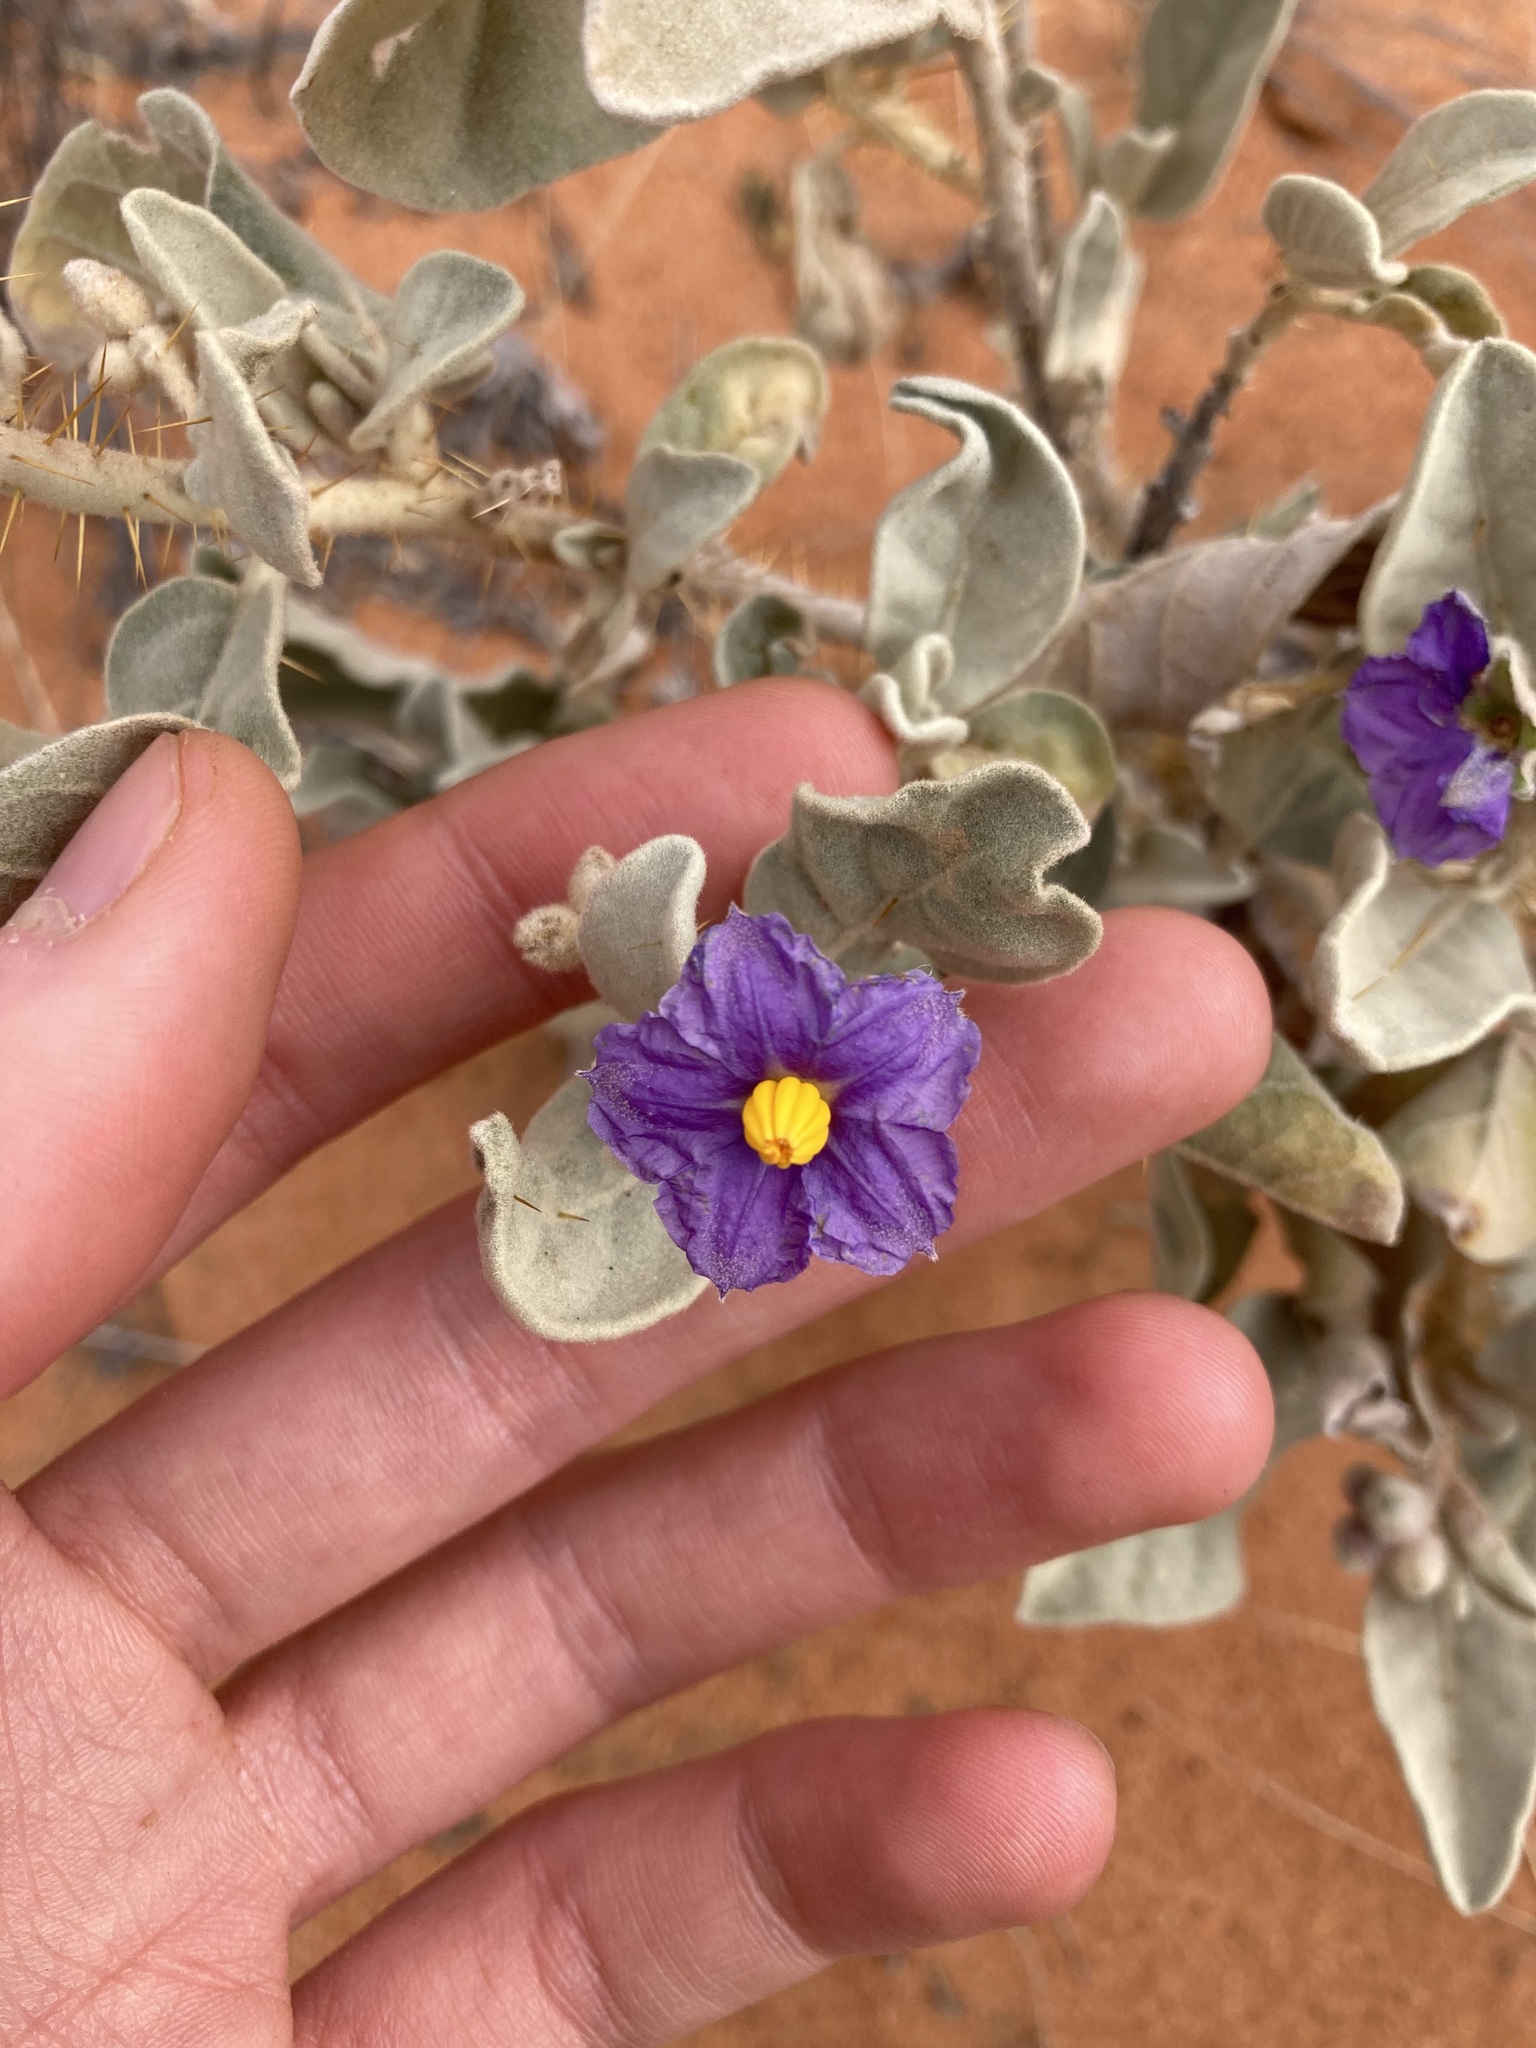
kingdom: Plantae
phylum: Tracheophyta
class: Magnoliopsida
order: Solanales
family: Solanaceae
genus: Solanum
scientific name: Solanum lasiophyllum
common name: Flannelbush
